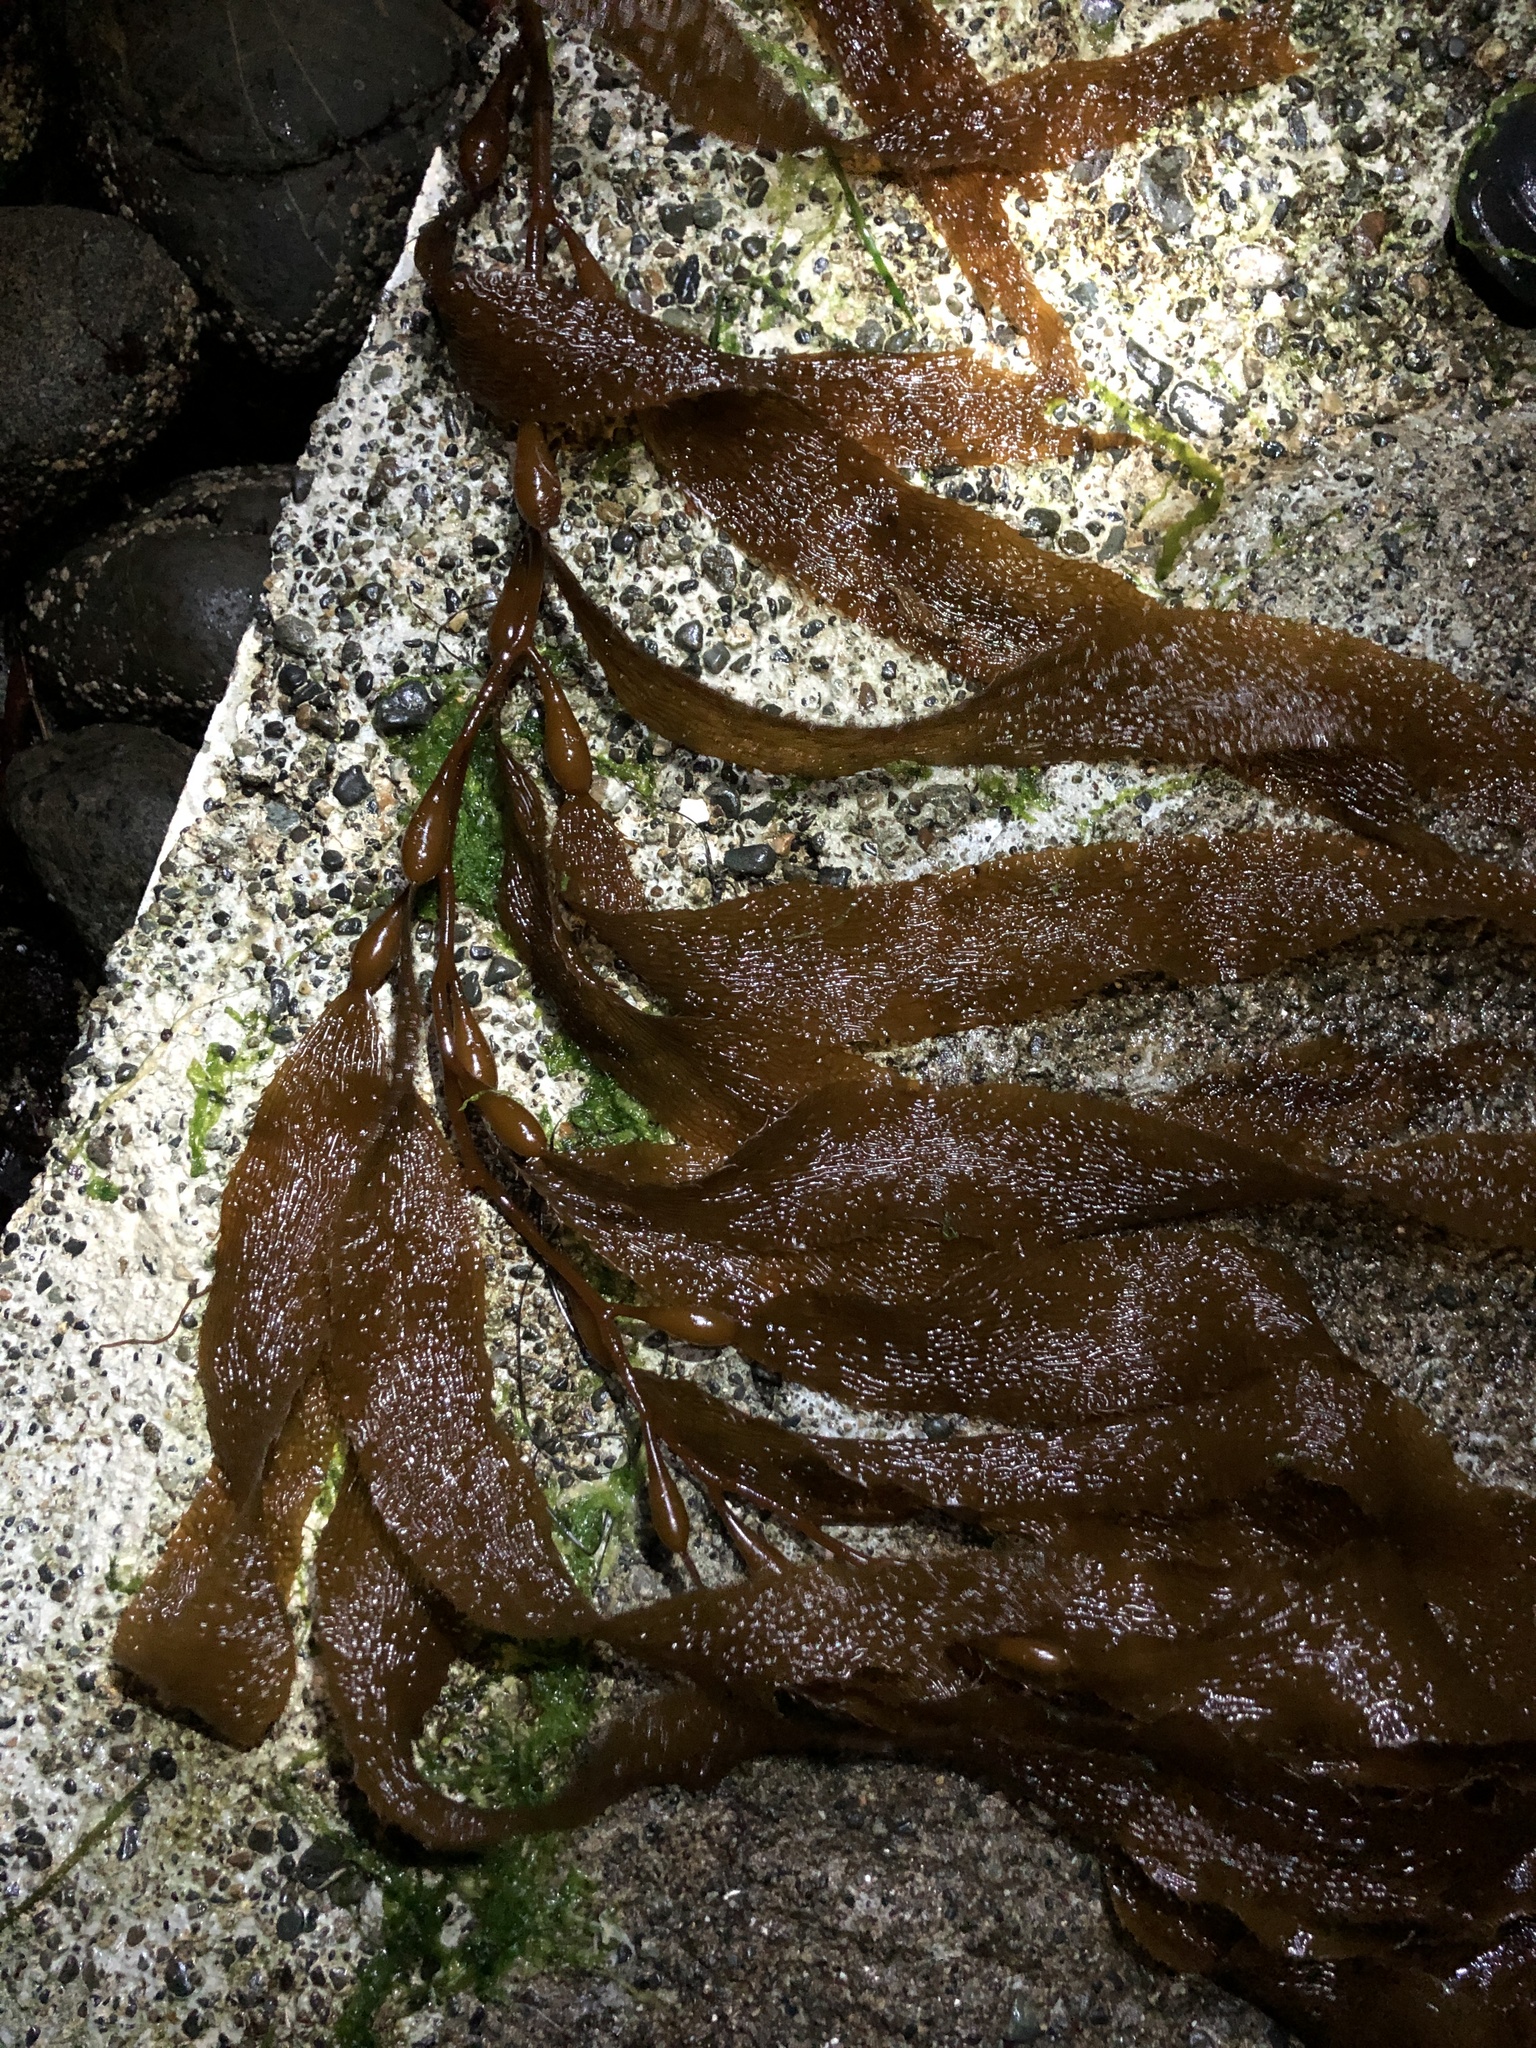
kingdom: Chromista
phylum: Ochrophyta
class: Phaeophyceae
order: Laminariales
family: Laminariaceae
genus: Macrocystis
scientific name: Macrocystis pyrifera
